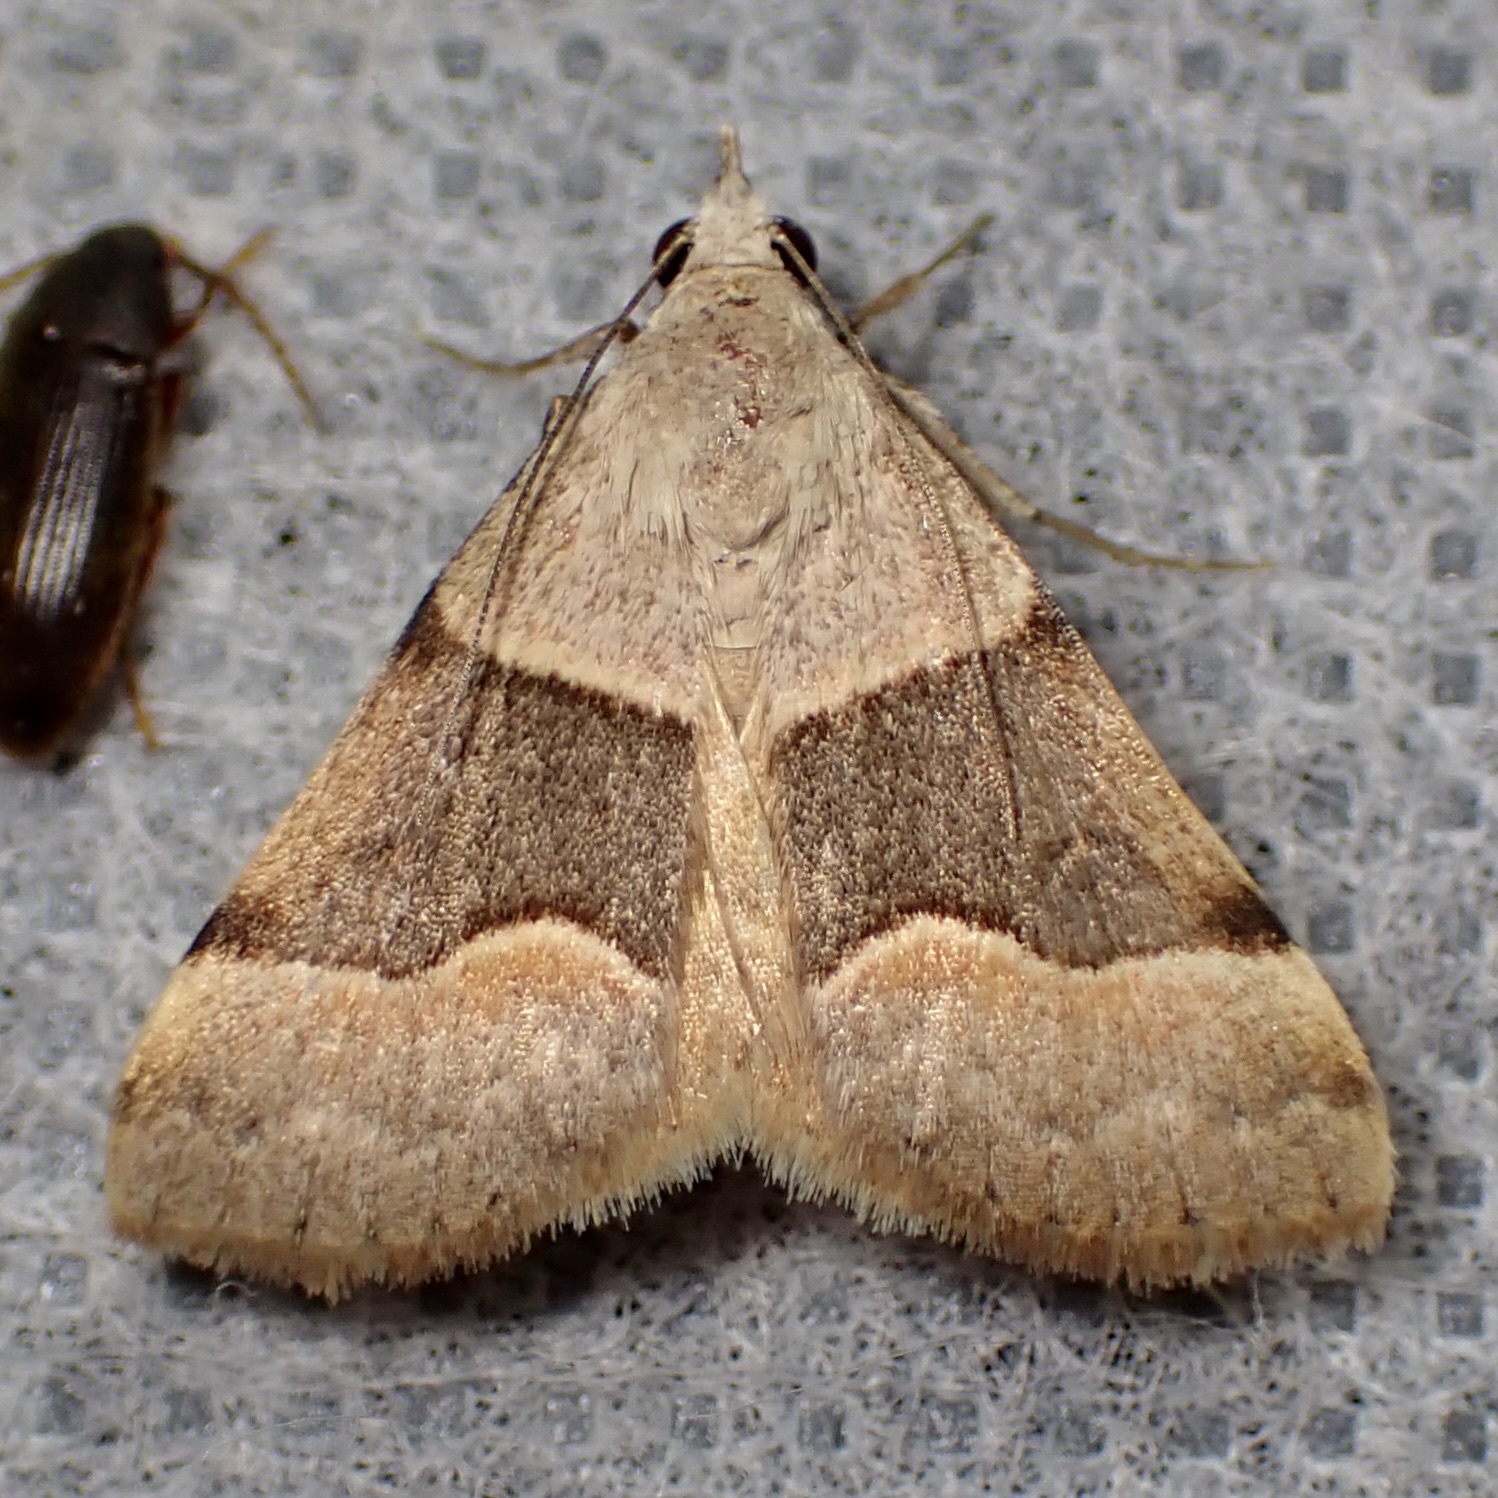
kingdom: Animalia
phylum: Arthropoda
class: Insecta
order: Lepidoptera
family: Erebidae
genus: Hemeroplanis
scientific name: Hemeroplanis incusalis
